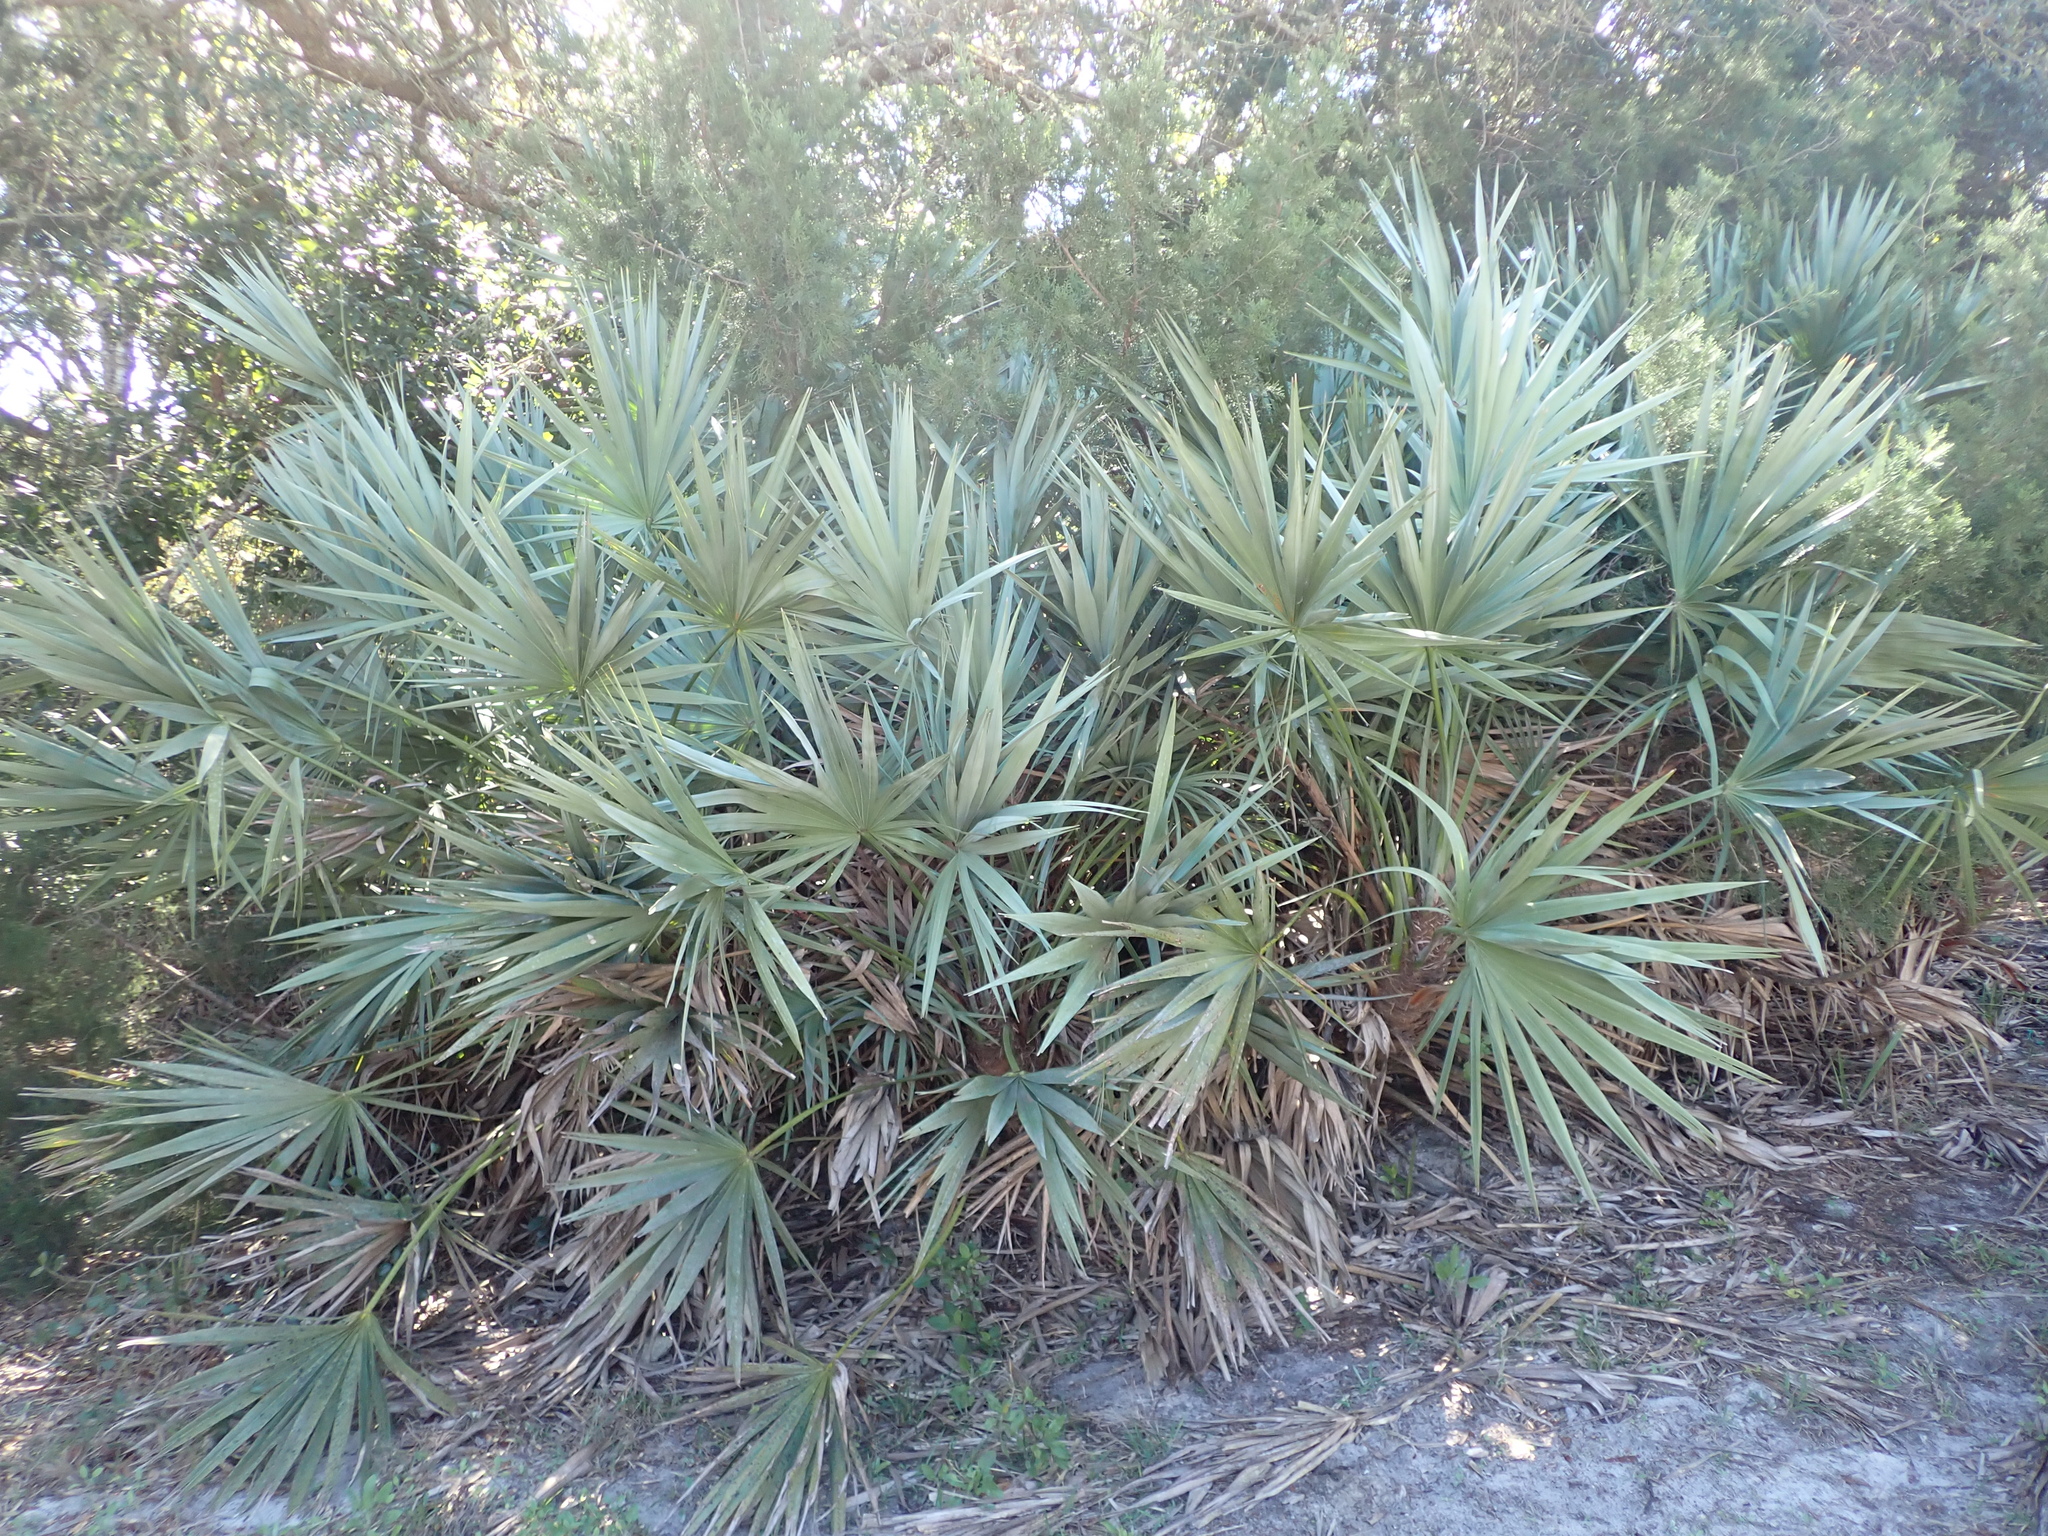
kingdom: Plantae
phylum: Tracheophyta
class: Liliopsida
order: Arecales
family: Arecaceae
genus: Serenoa
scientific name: Serenoa repens
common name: Saw-palmetto
